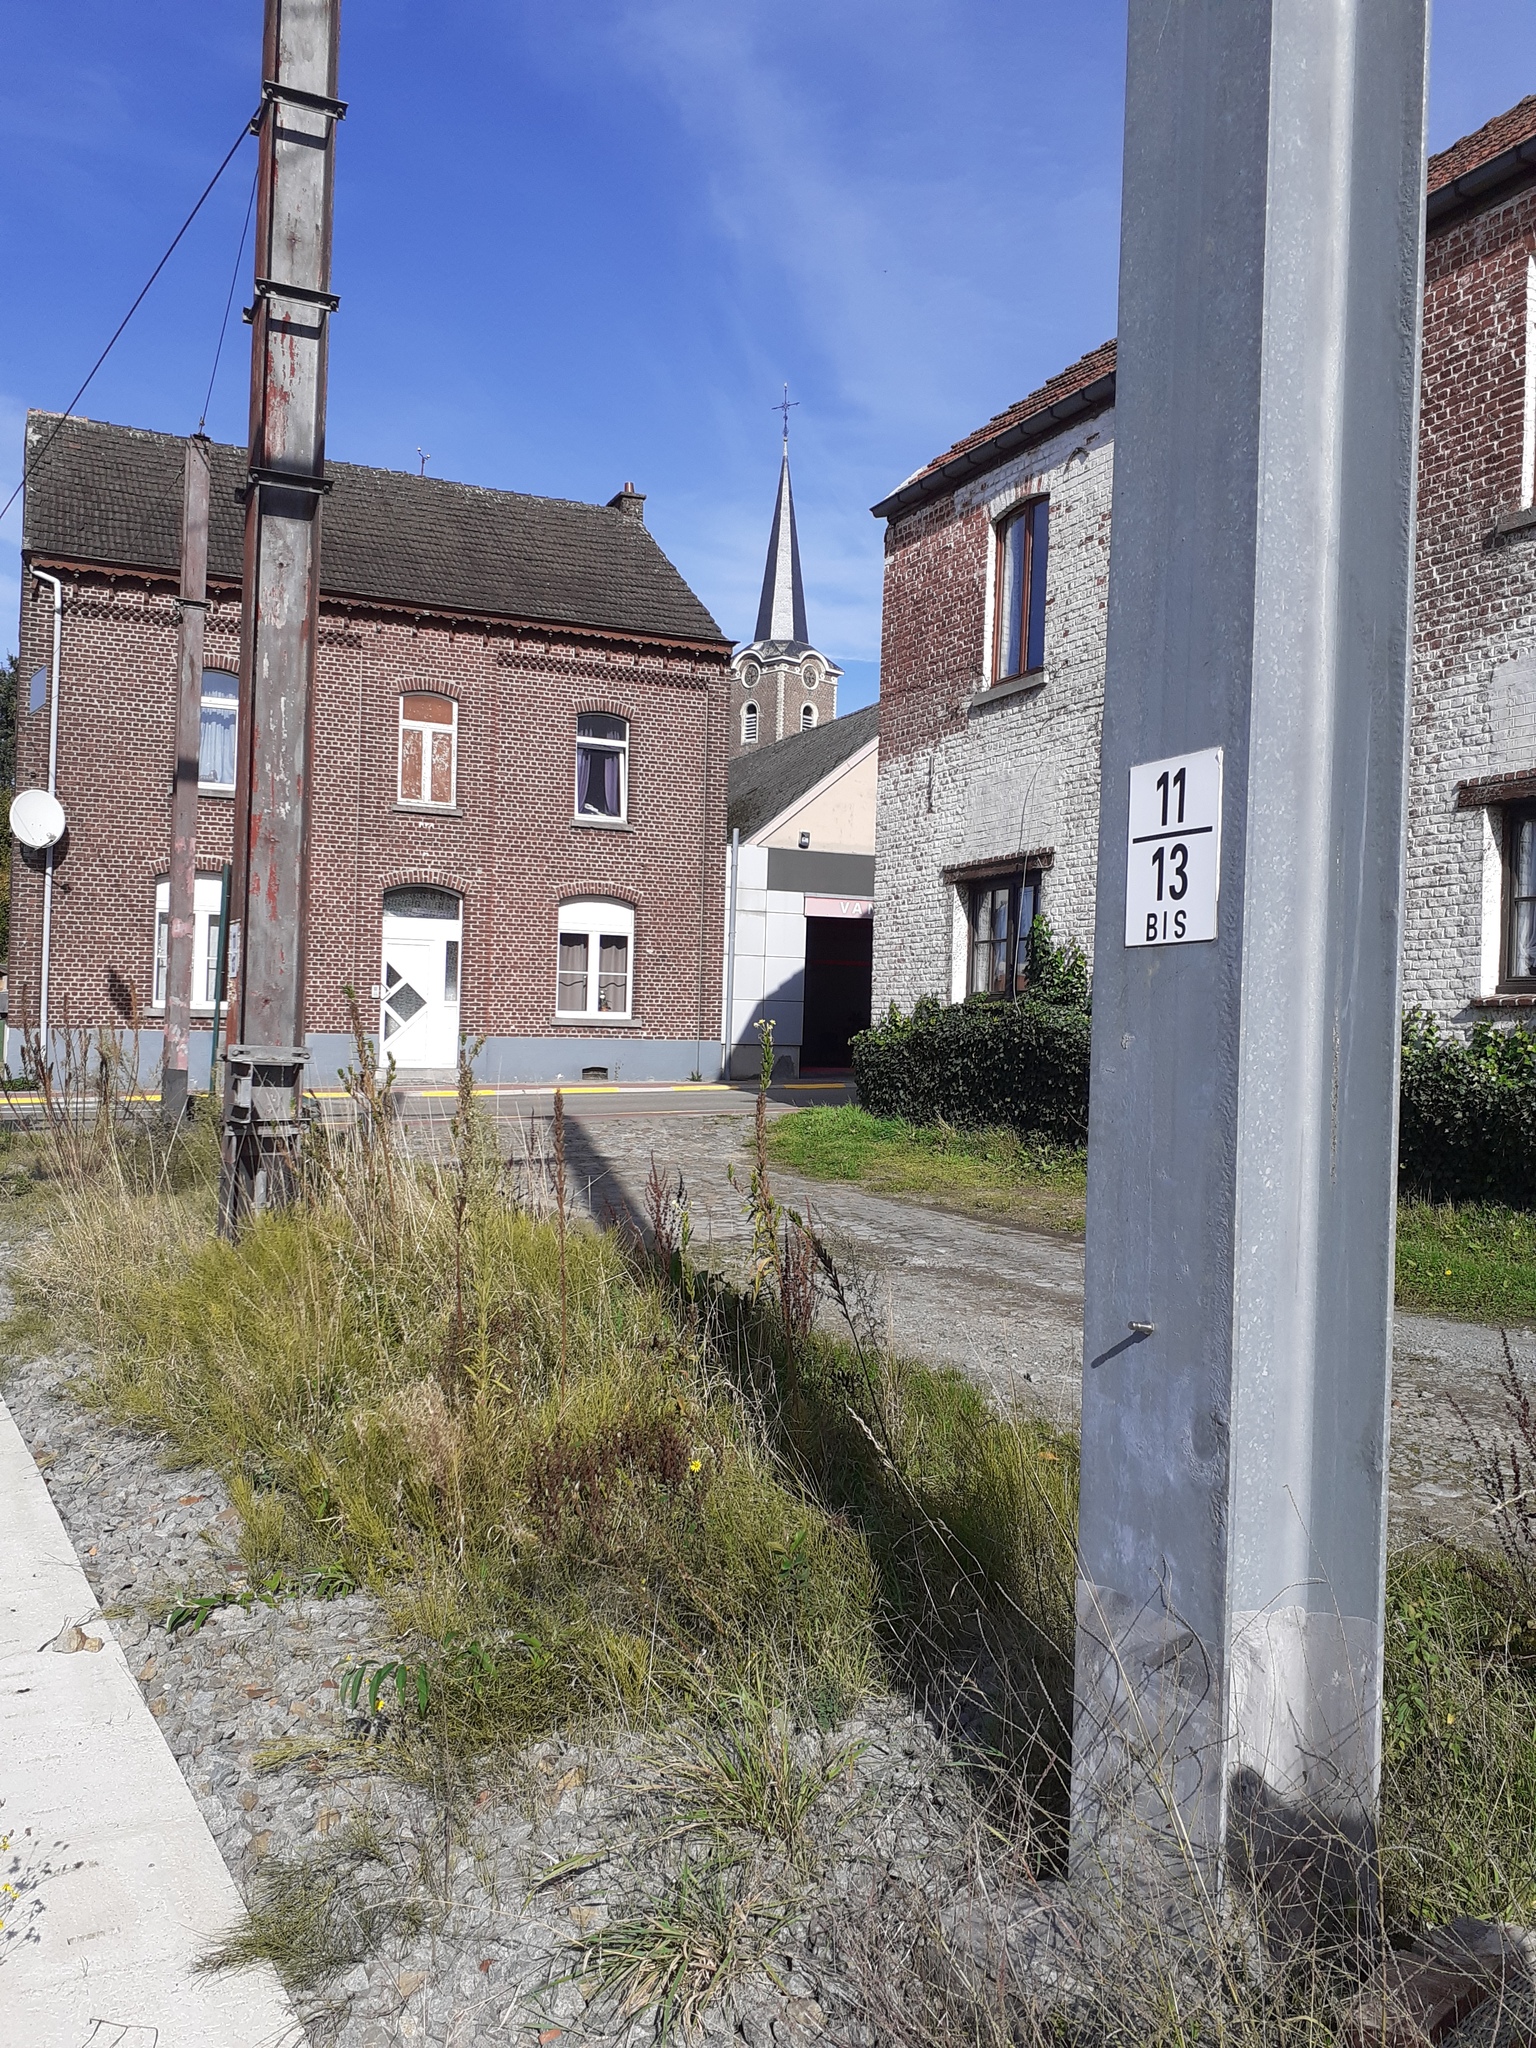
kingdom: Animalia
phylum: Arthropoda
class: Insecta
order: Hymenoptera
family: Vespidae
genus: Vespa
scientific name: Vespa velutina
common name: Asian hornet
